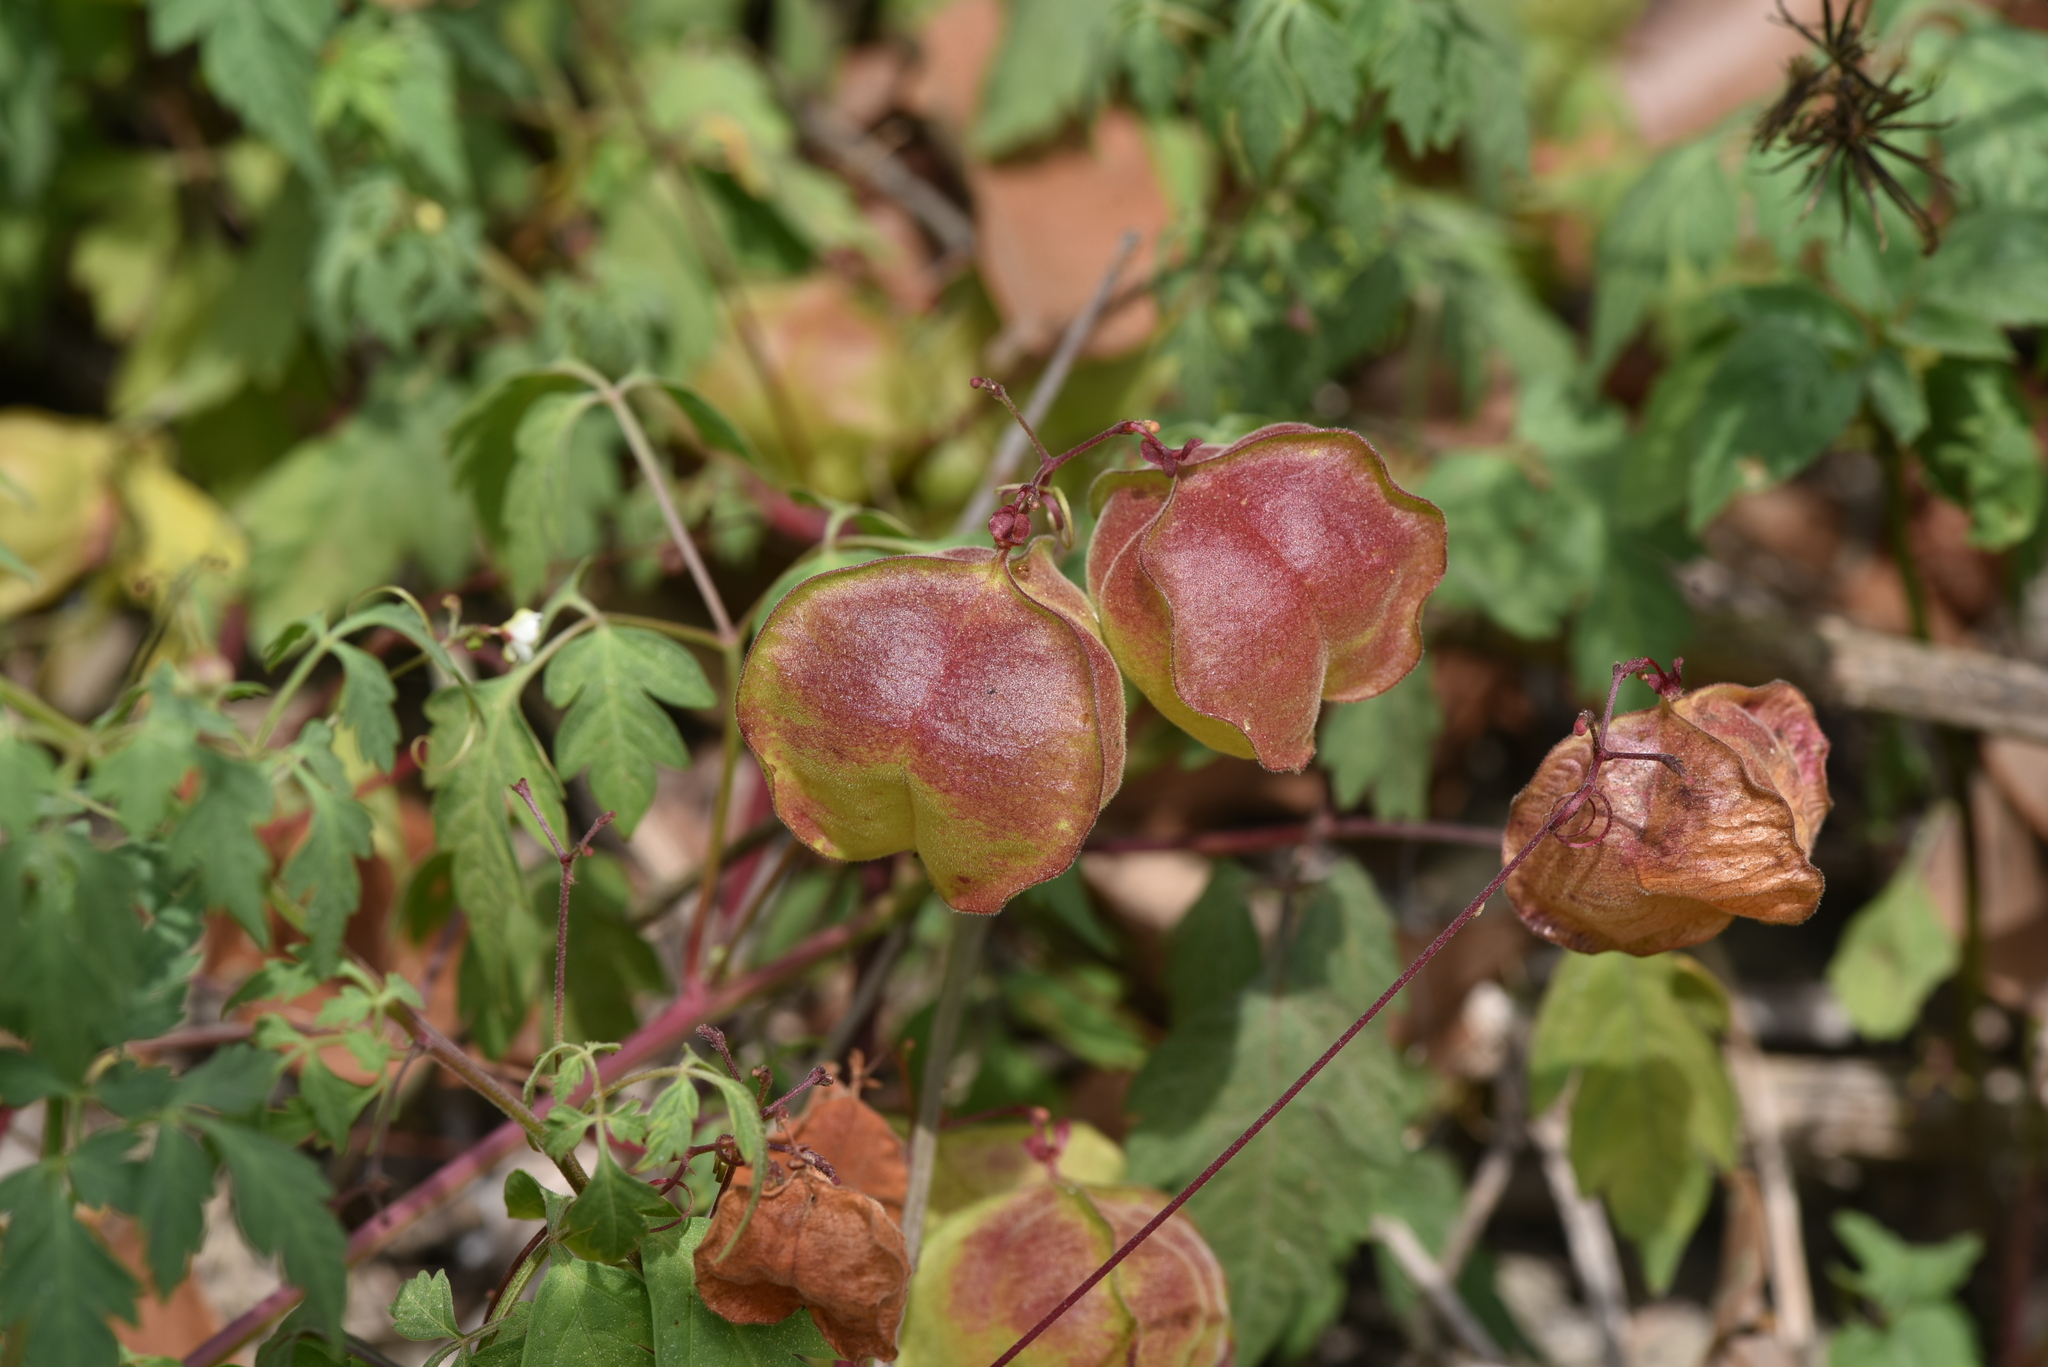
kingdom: Plantae
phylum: Tracheophyta
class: Magnoliopsida
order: Sapindales
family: Sapindaceae
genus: Cardiospermum
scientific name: Cardiospermum halicacabum
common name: Balloon vine
